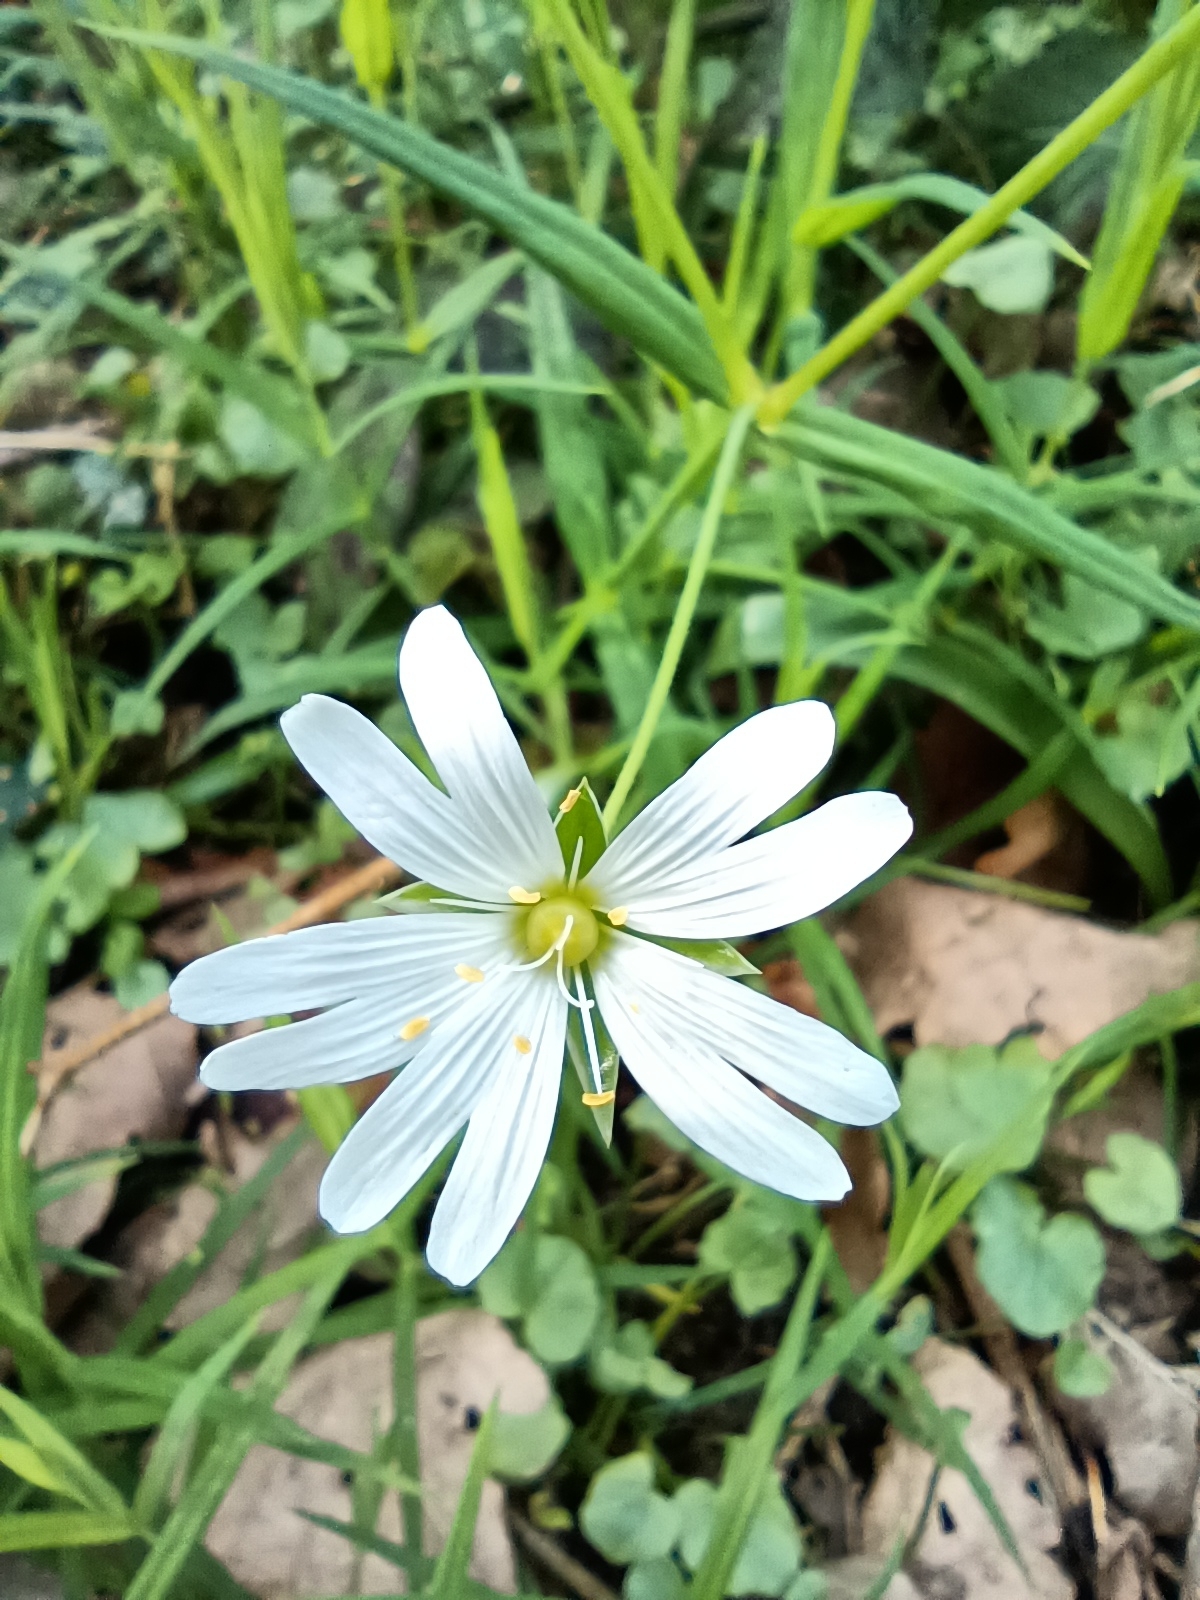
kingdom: Plantae
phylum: Tracheophyta
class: Magnoliopsida
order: Caryophyllales
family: Caryophyllaceae
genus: Rabelera
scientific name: Rabelera holostea
